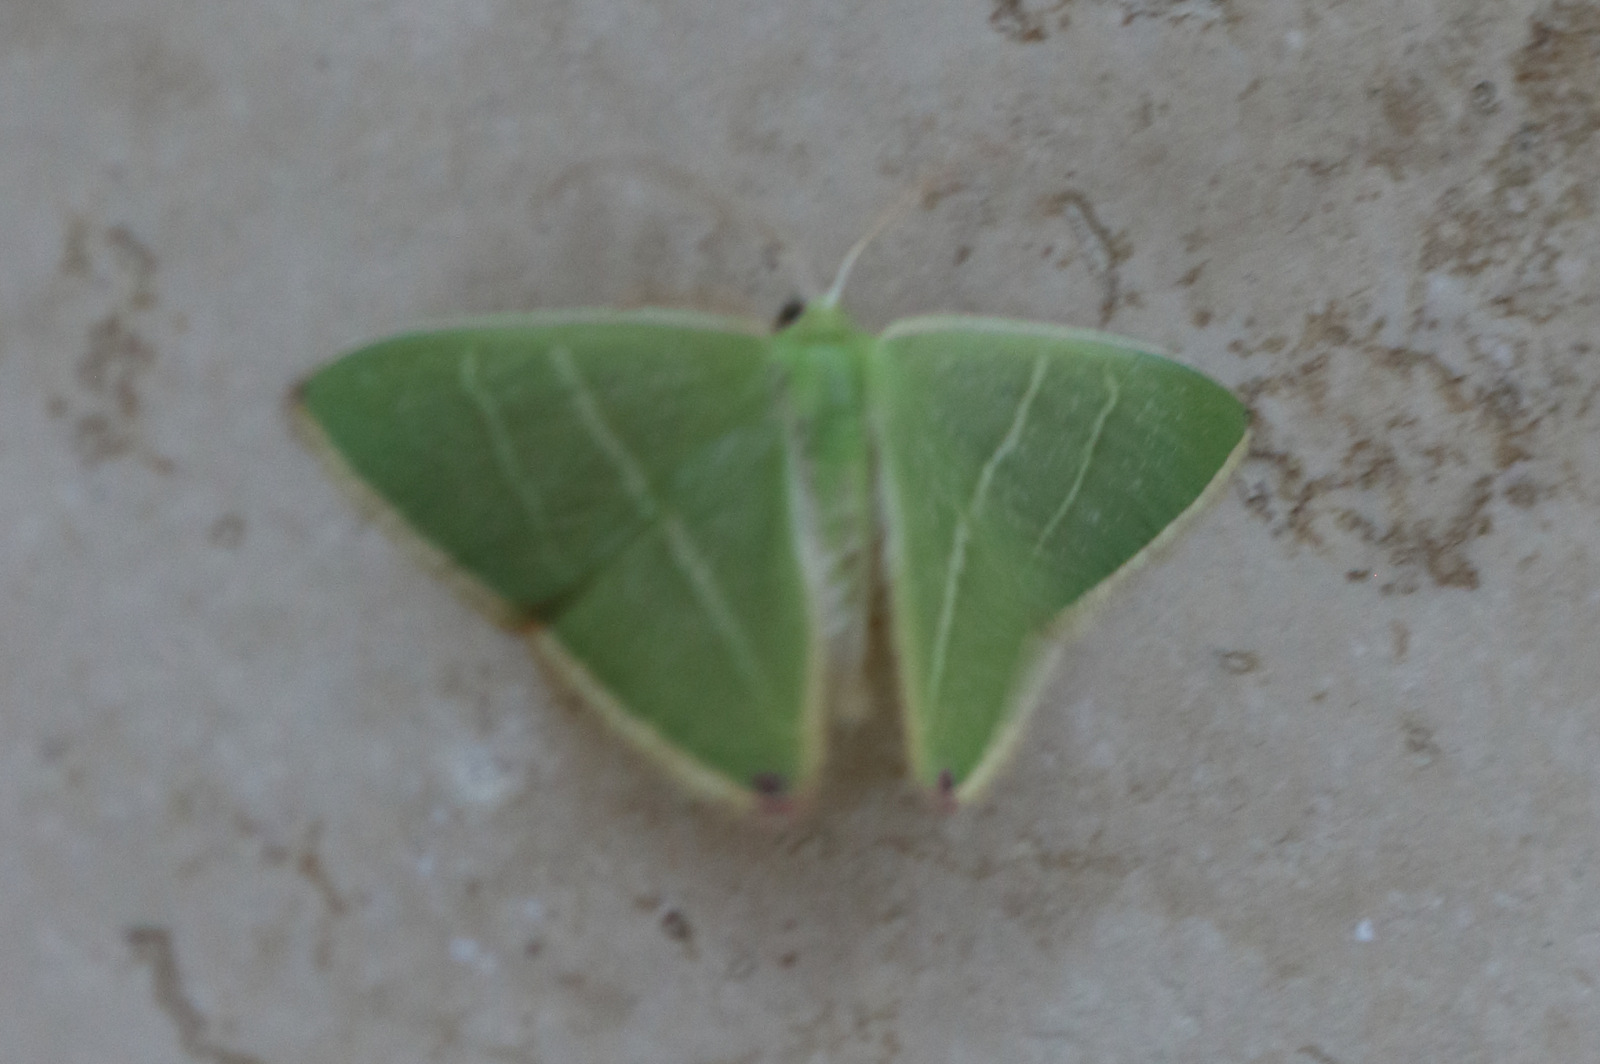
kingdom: Animalia
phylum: Arthropoda
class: Insecta
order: Lepidoptera
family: Geometridae
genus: Urolitha
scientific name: Urolitha bipunctifera
